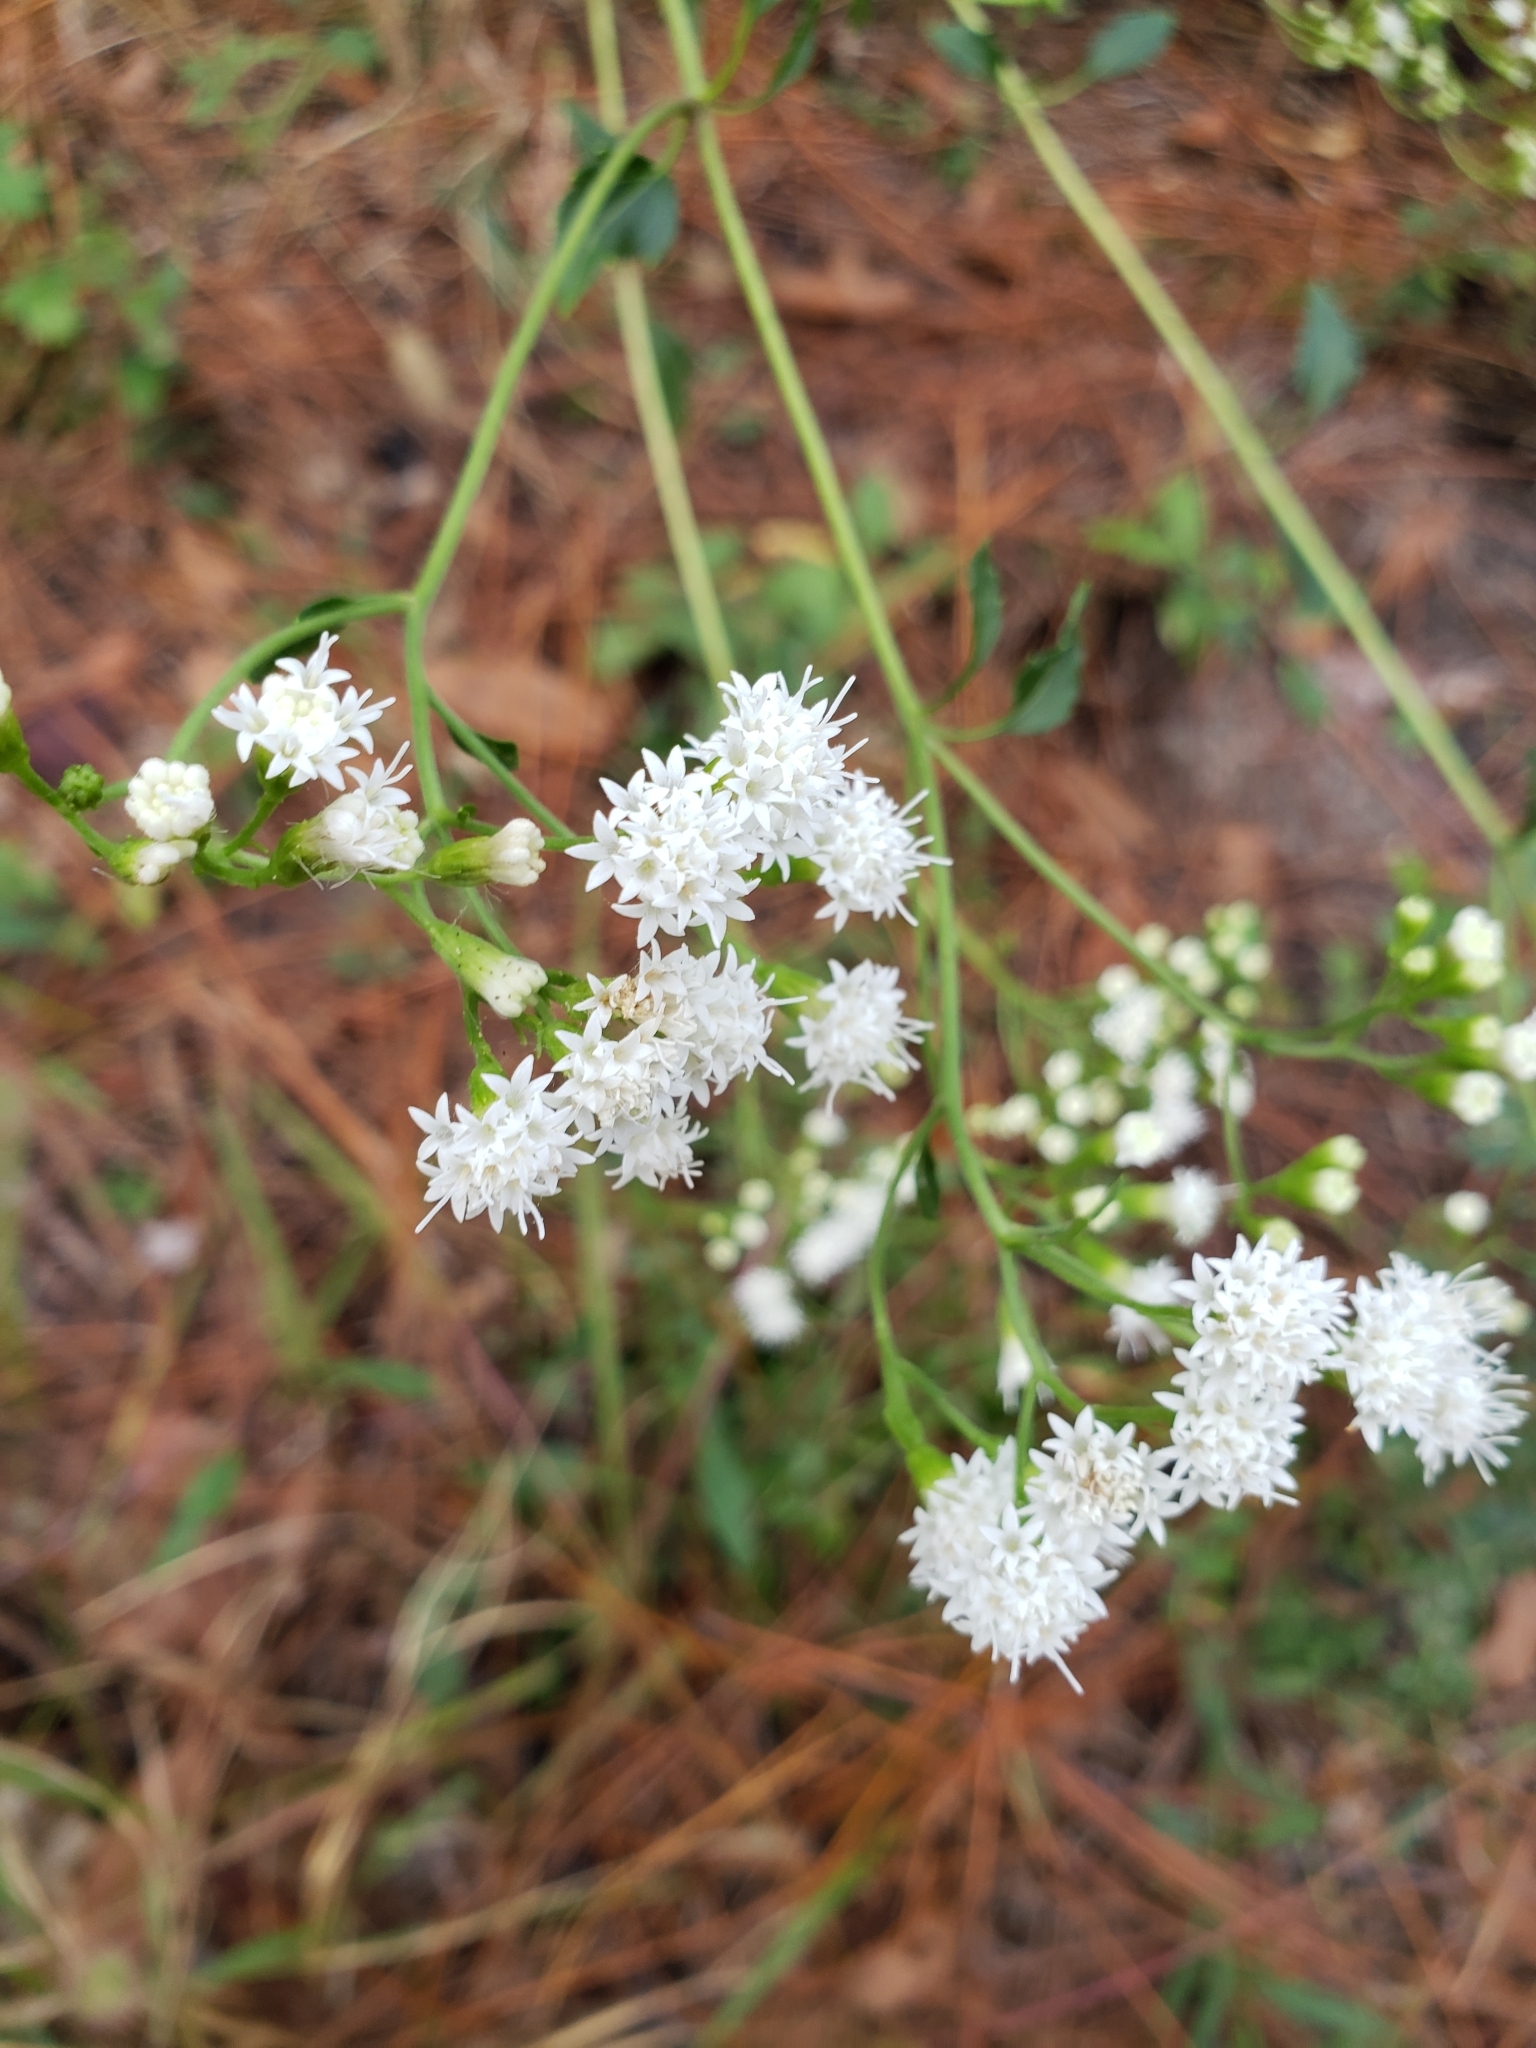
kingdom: Plantae
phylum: Tracheophyta
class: Magnoliopsida
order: Asterales
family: Asteraceae
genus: Ageratina
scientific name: Ageratina jucunda
